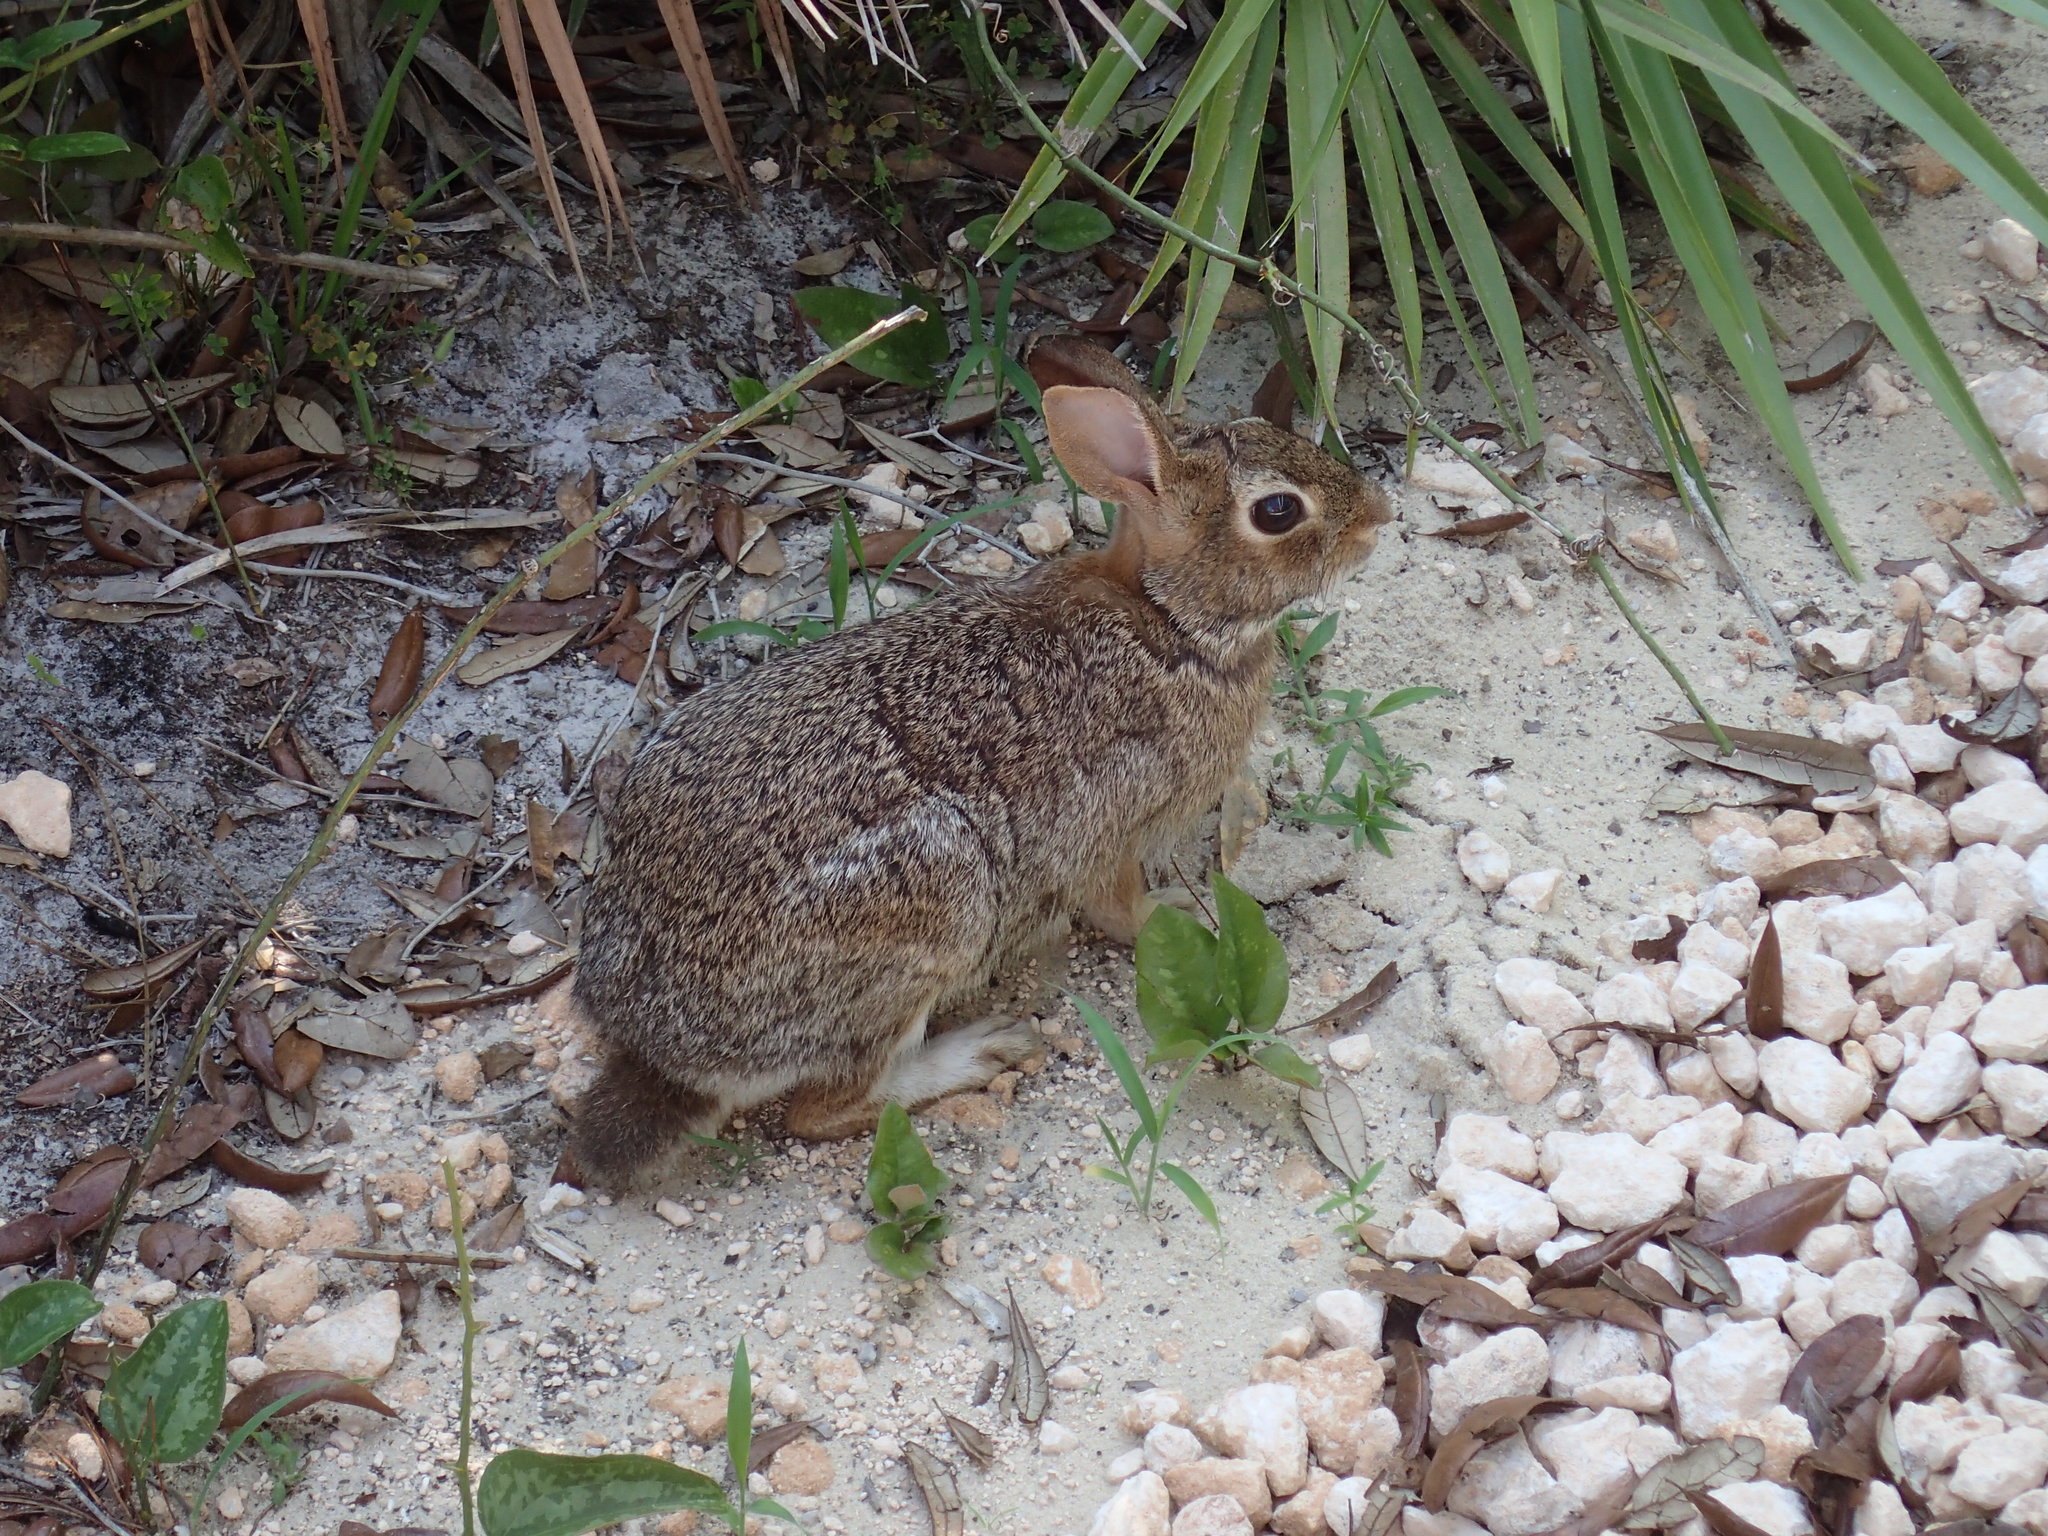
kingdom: Animalia
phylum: Chordata
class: Mammalia
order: Lagomorpha
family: Leporidae
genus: Sylvilagus
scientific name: Sylvilagus floridanus
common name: Eastern cottontail
